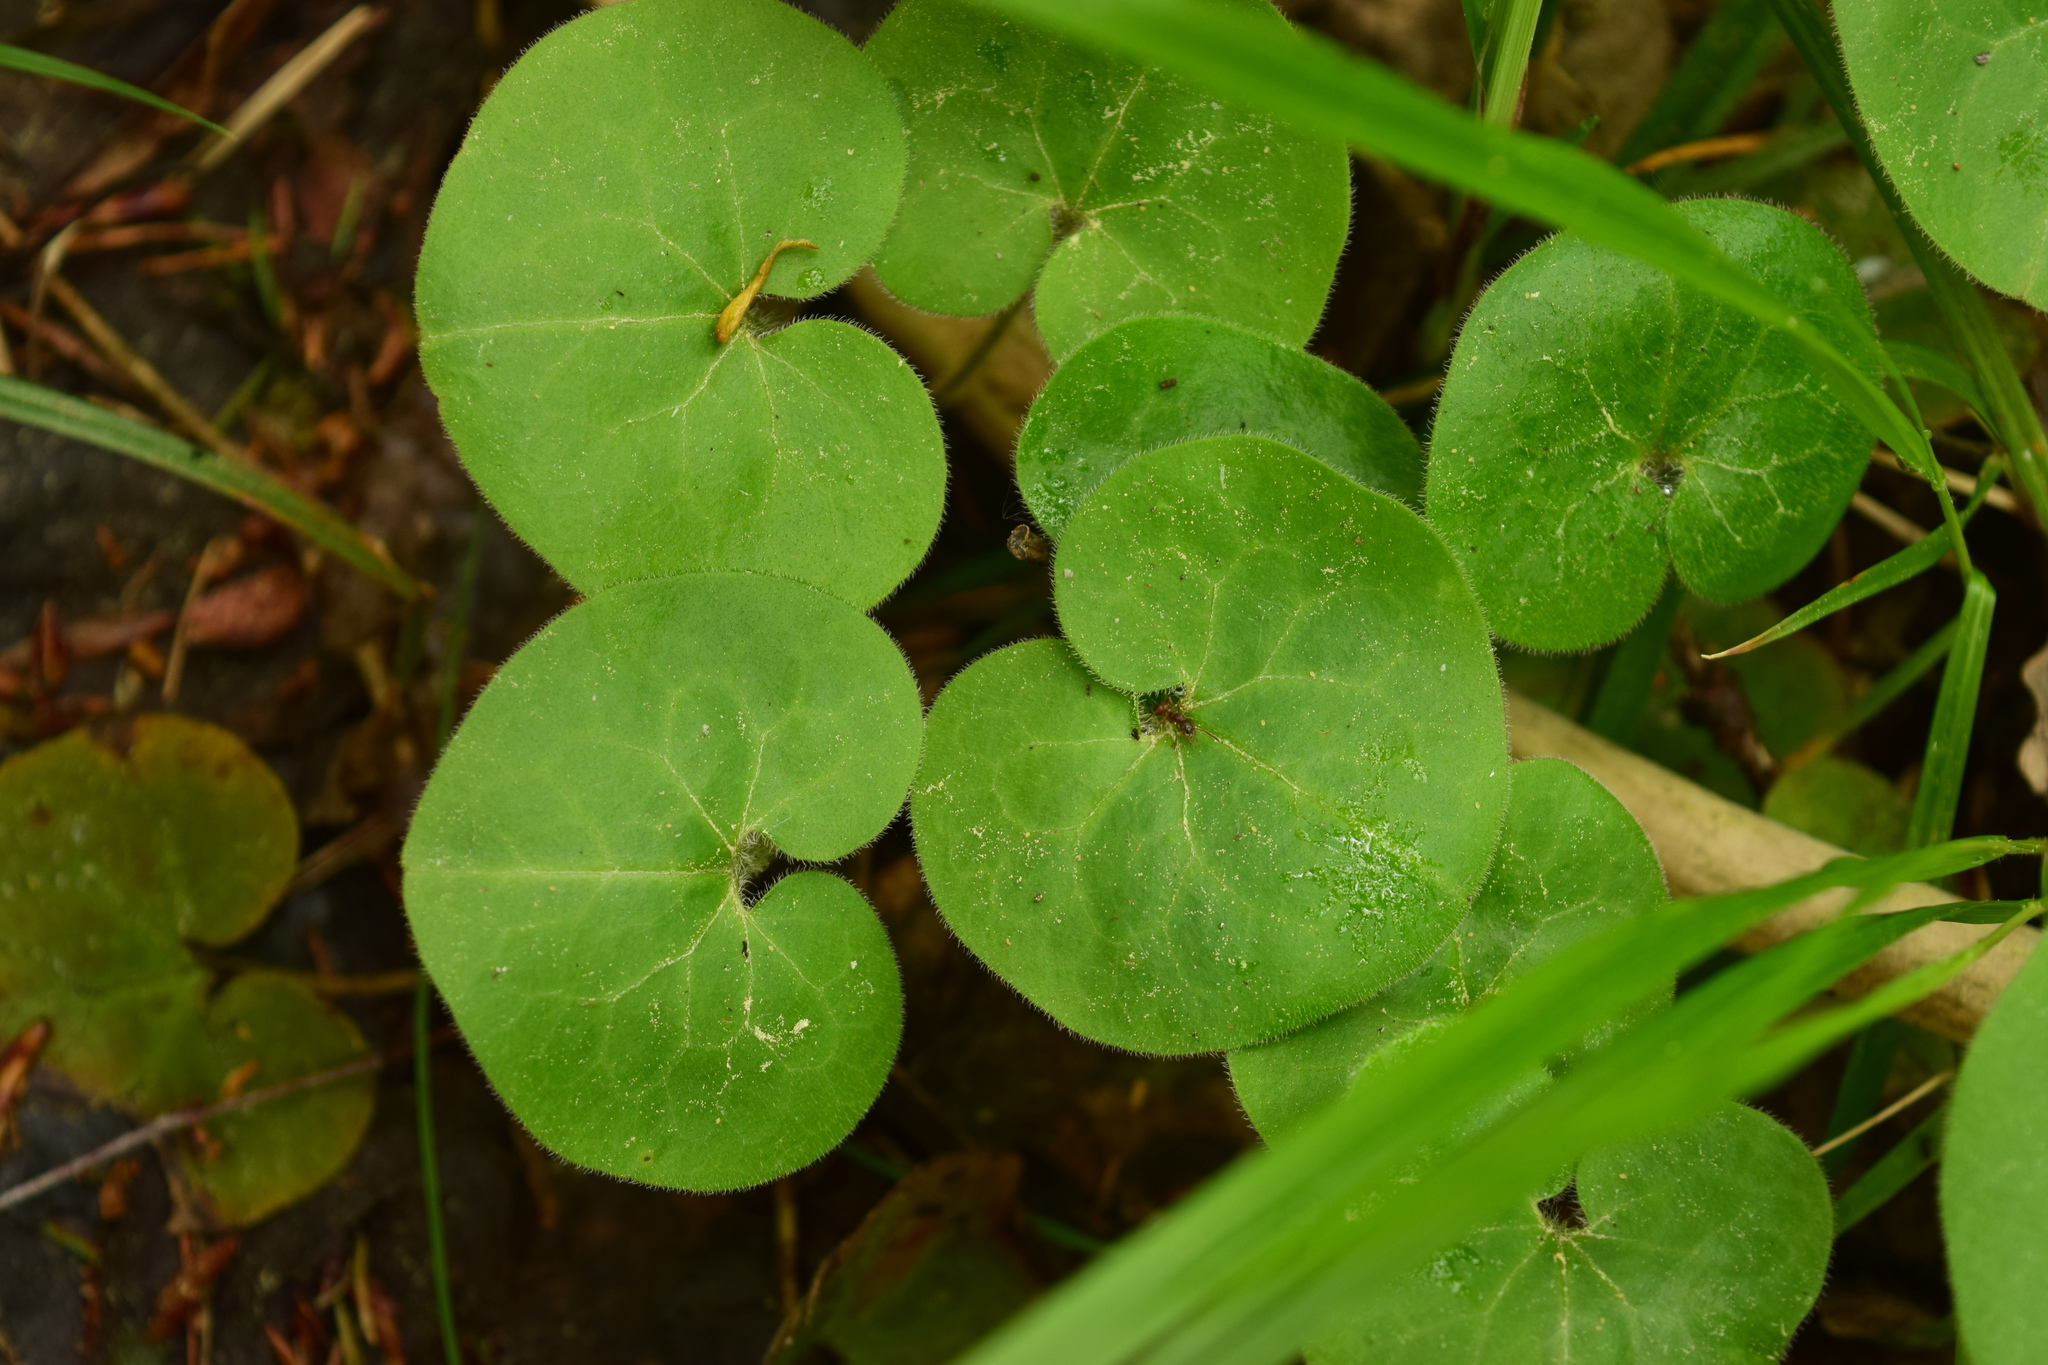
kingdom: Plantae
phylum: Tracheophyta
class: Magnoliopsida
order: Piperales
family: Aristolochiaceae
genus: Asarum
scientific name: Asarum europaeum
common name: Asarabacca
